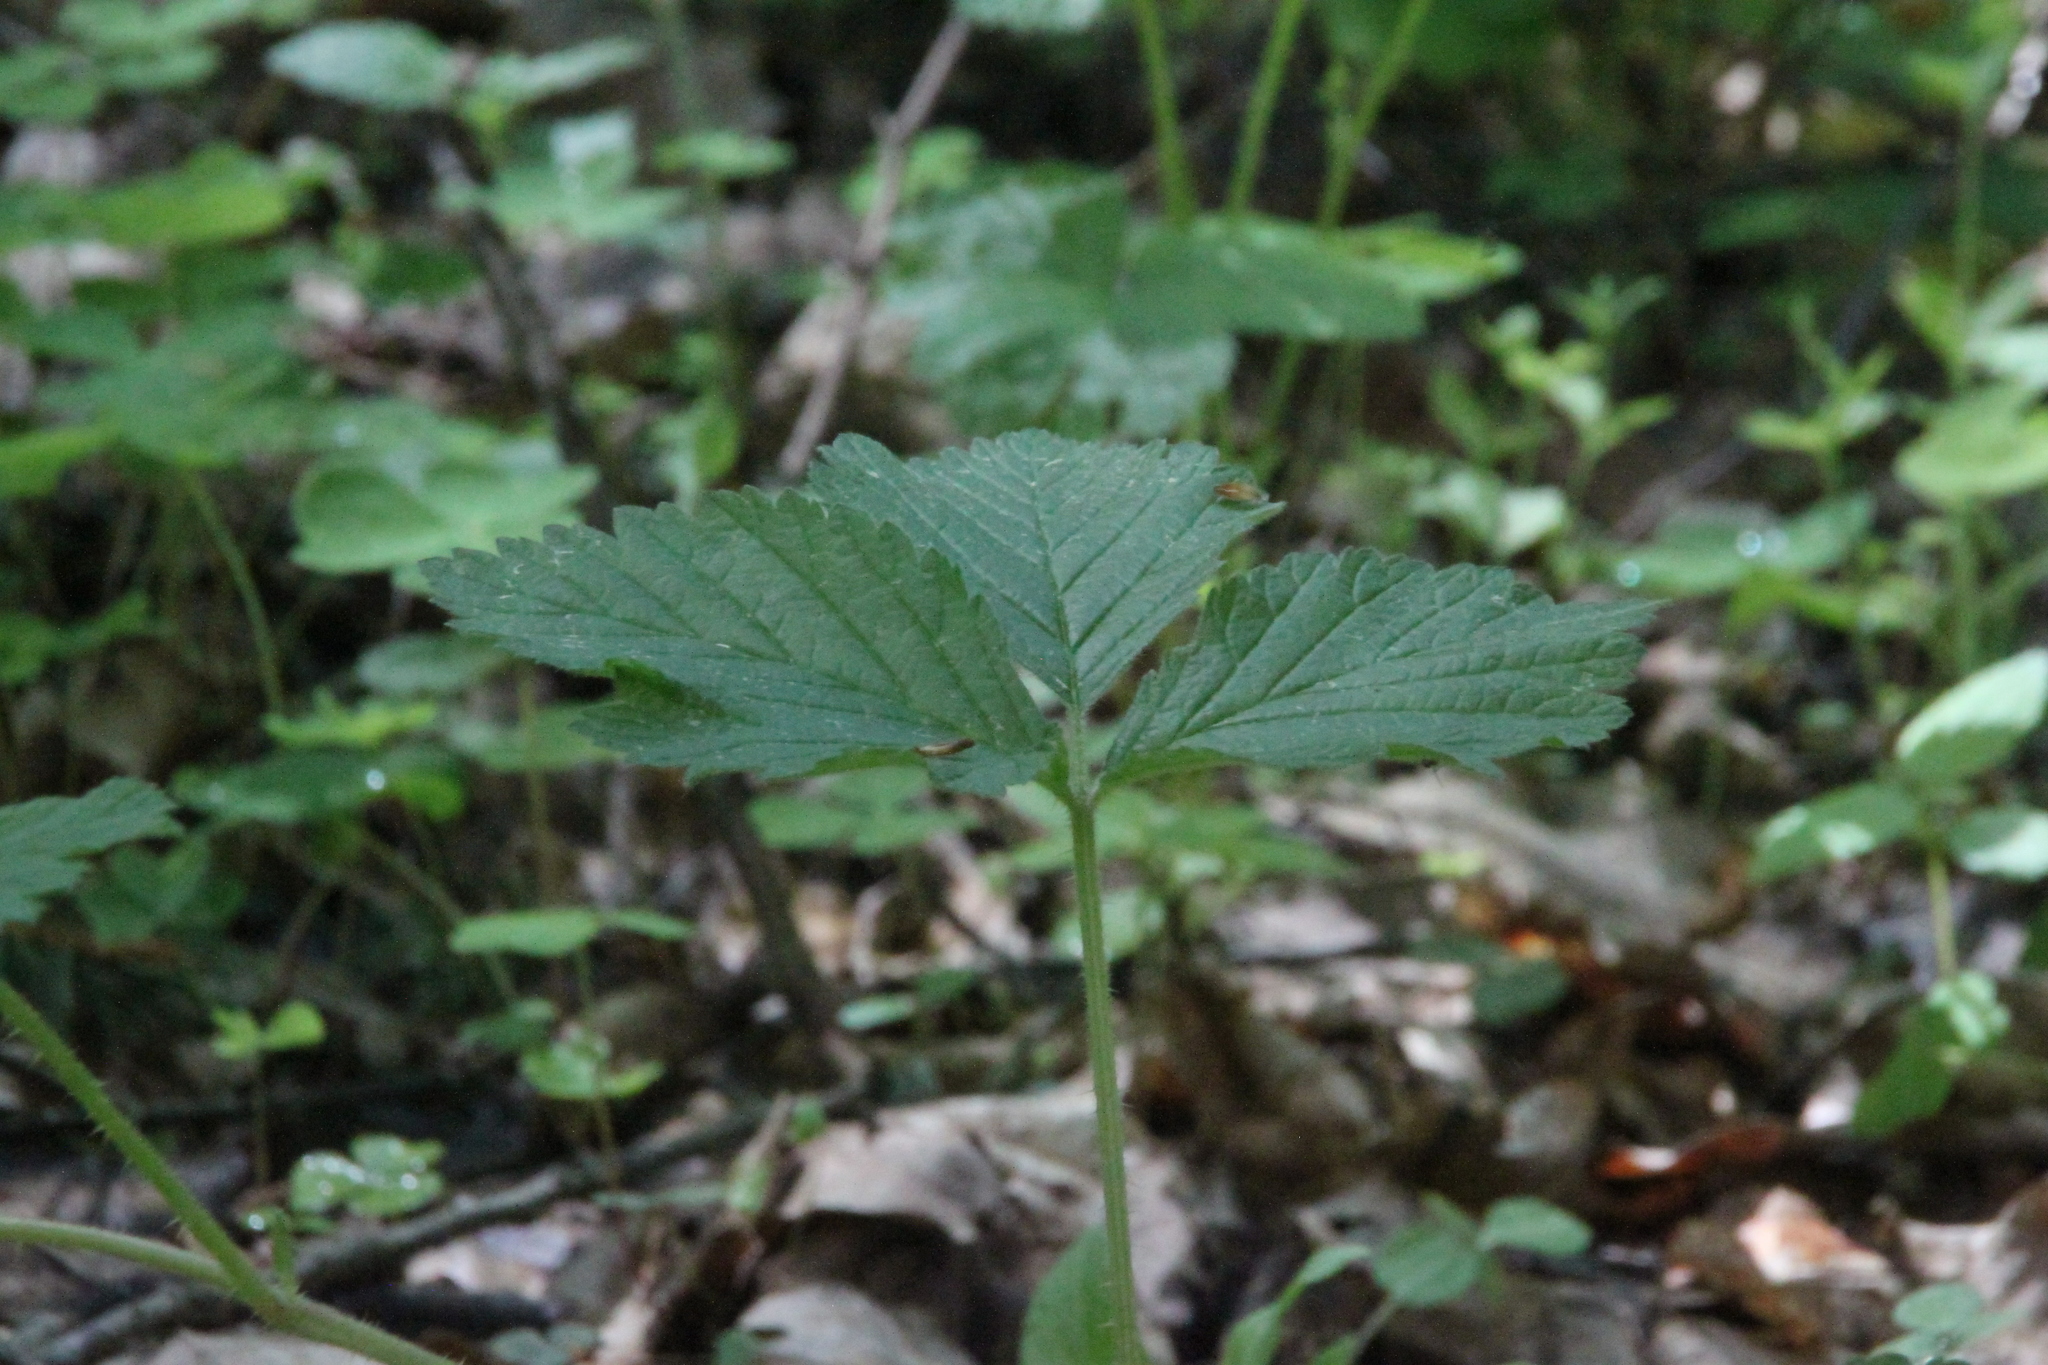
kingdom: Plantae
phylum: Tracheophyta
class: Magnoliopsida
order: Rosales
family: Rosaceae
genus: Rubus
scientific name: Rubus saxatilis
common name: Stone bramble
